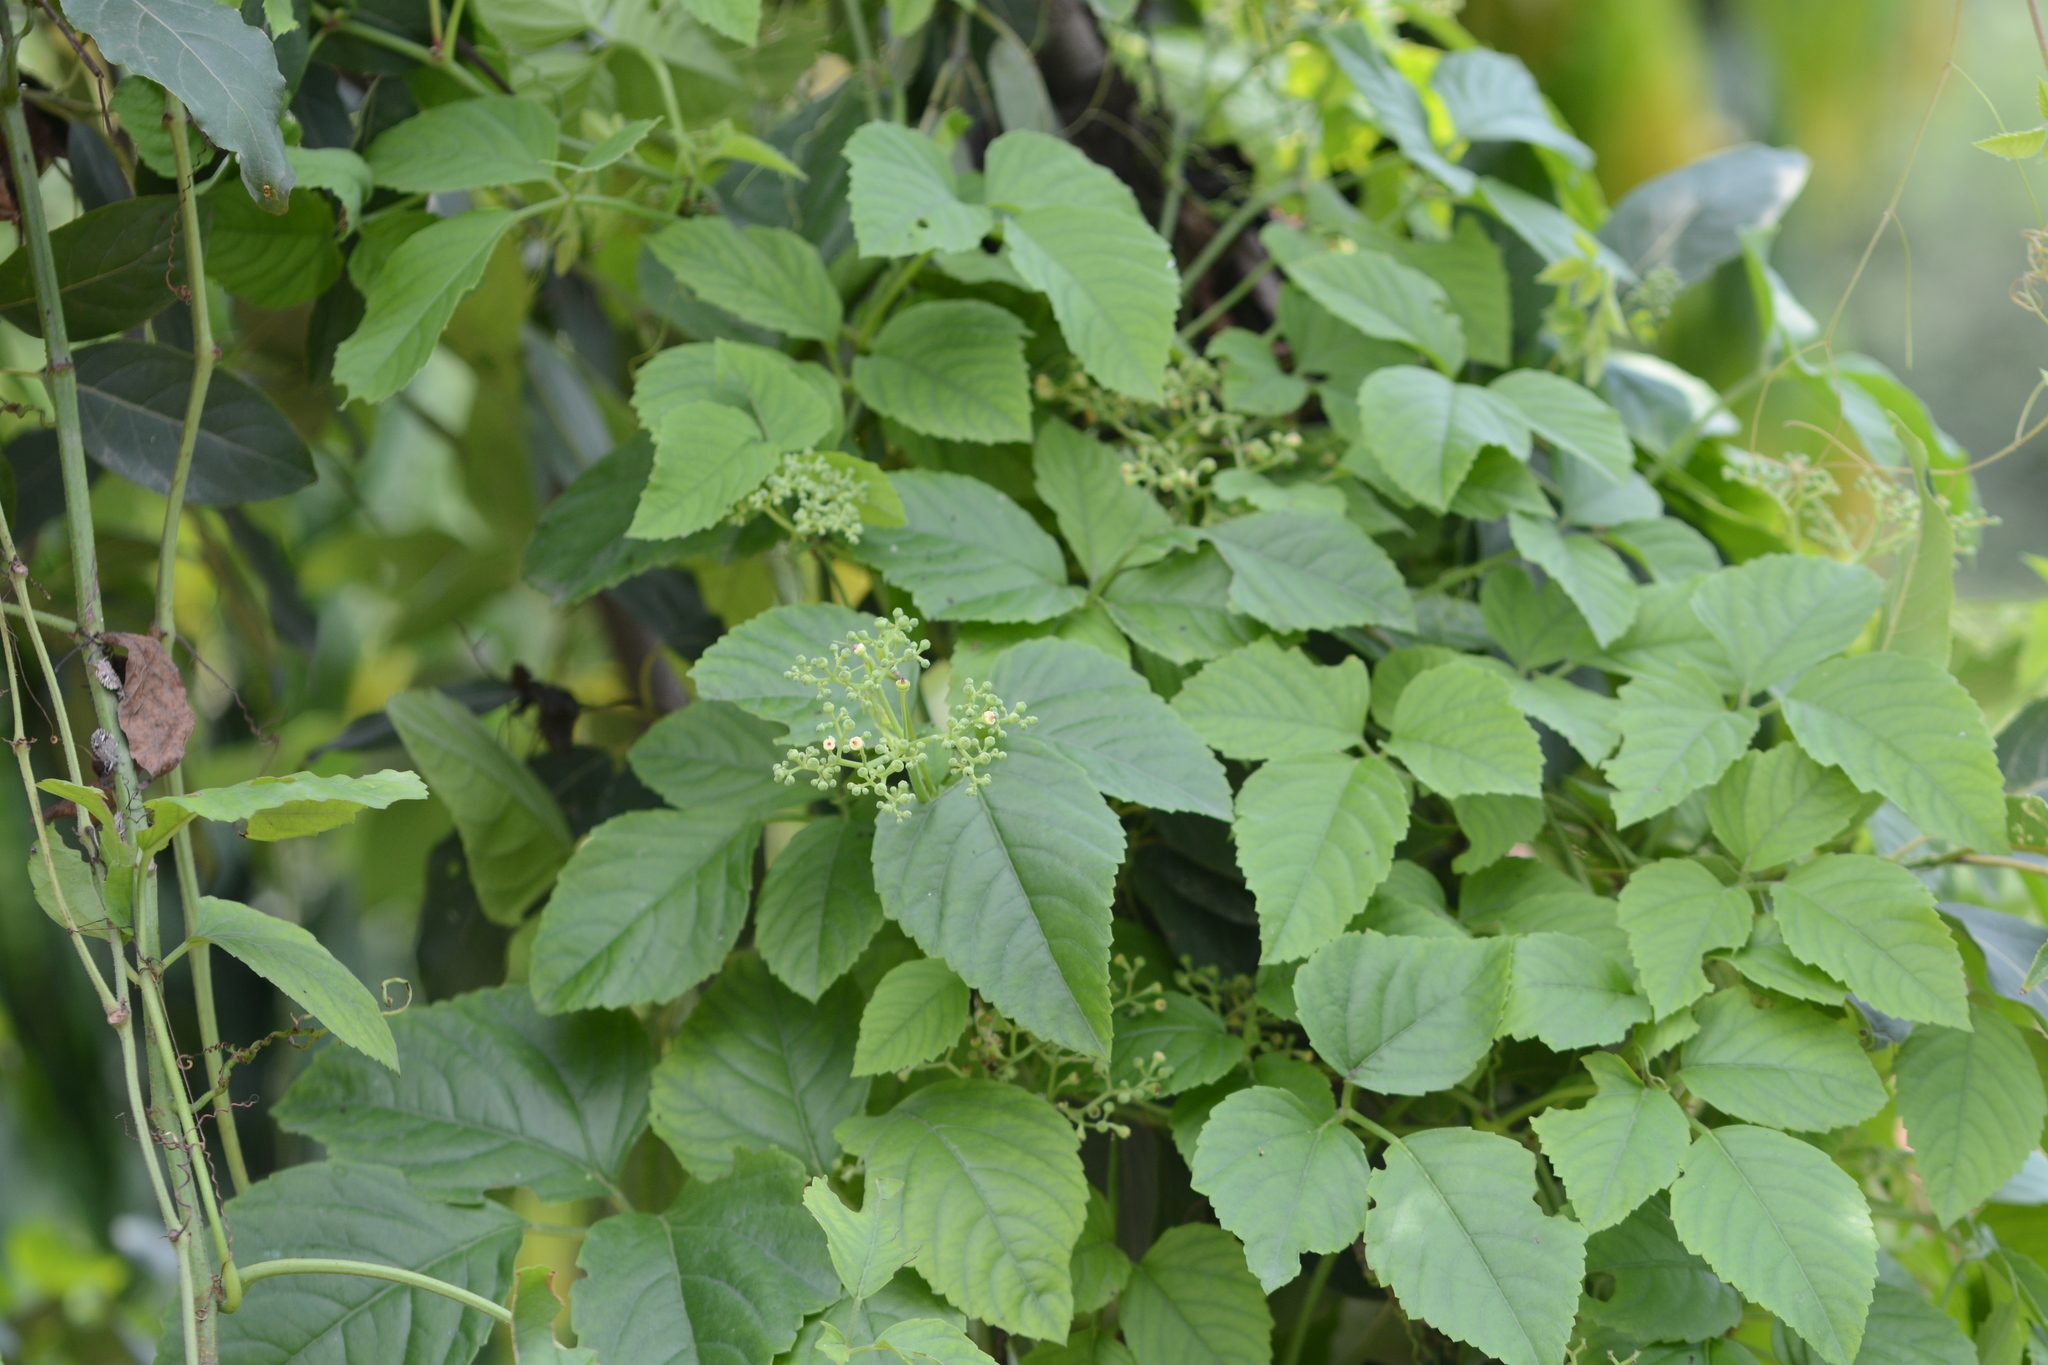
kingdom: Plantae
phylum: Tracheophyta
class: Magnoliopsida
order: Vitales
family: Vitaceae
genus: Causonis
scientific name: Causonis trifolia
